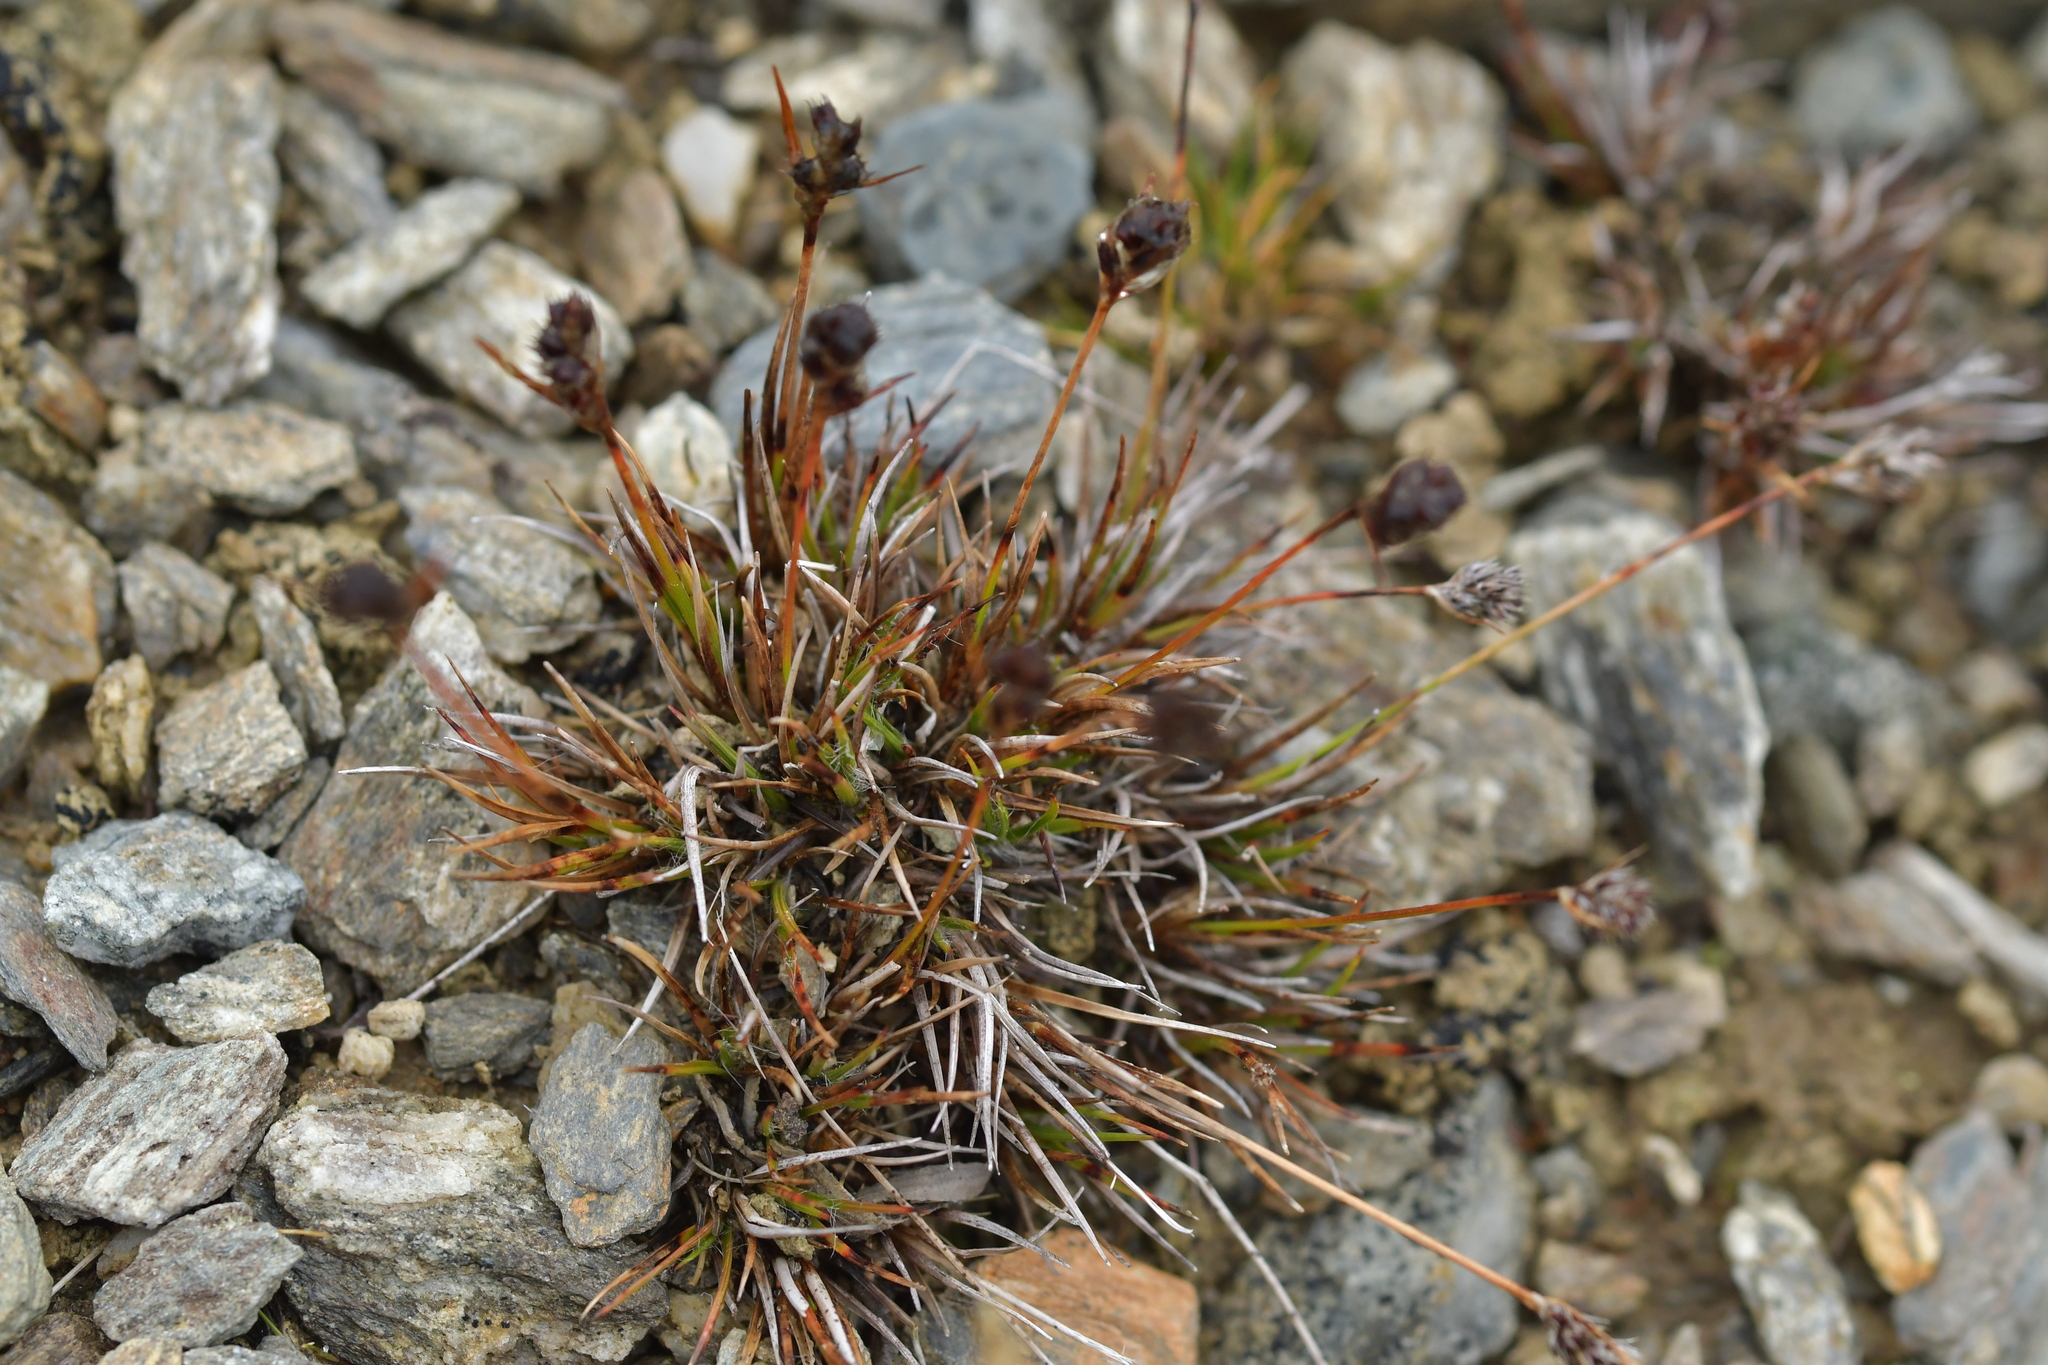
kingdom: Plantae
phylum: Tracheophyta
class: Liliopsida
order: Poales
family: Juncaceae
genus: Luzula
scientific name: Luzula pumila
